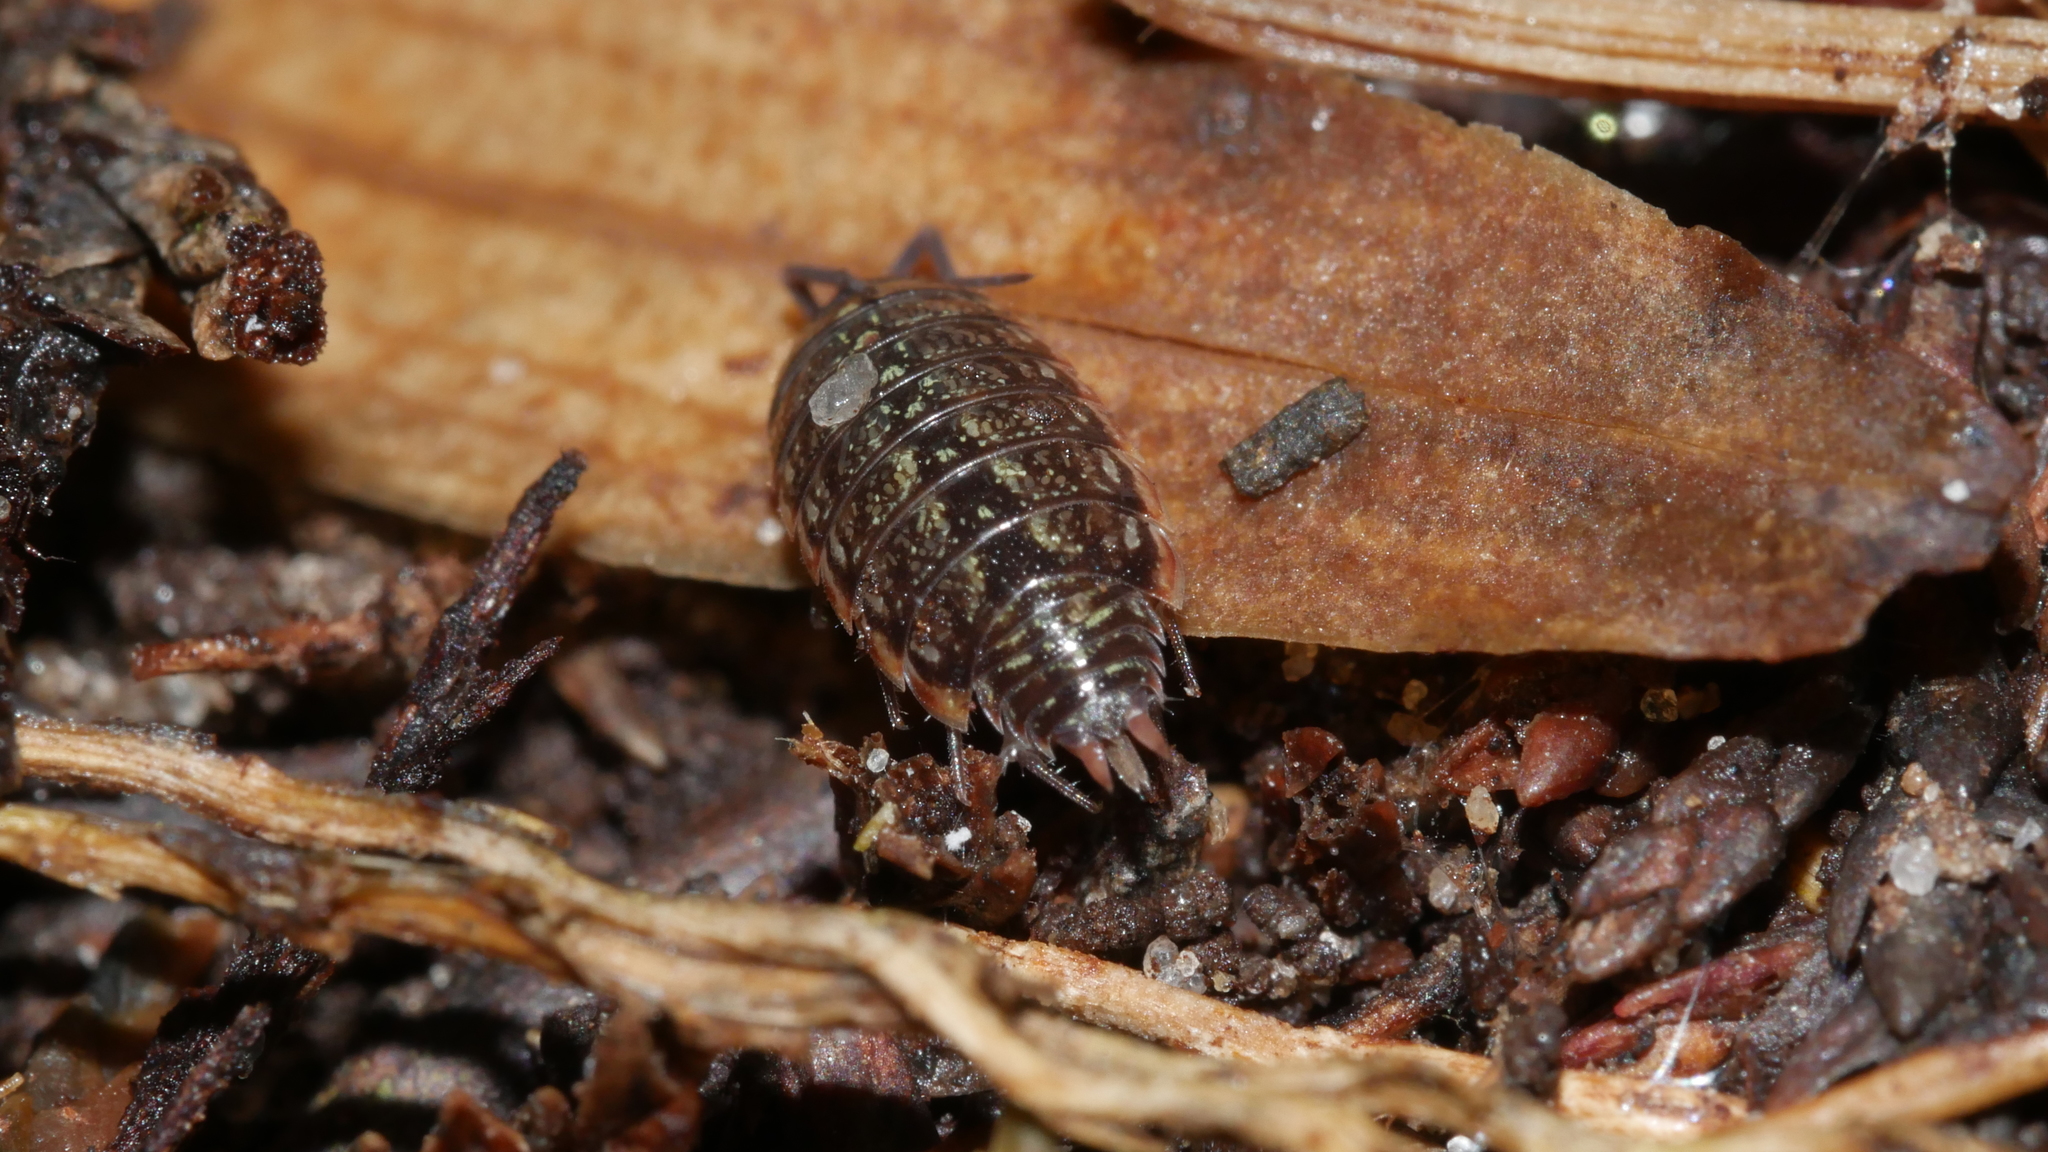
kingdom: Animalia
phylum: Arthropoda
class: Malacostraca
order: Isopoda
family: Philosciidae
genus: Philoscia
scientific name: Philoscia muscorum
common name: Common striped woodlouse
